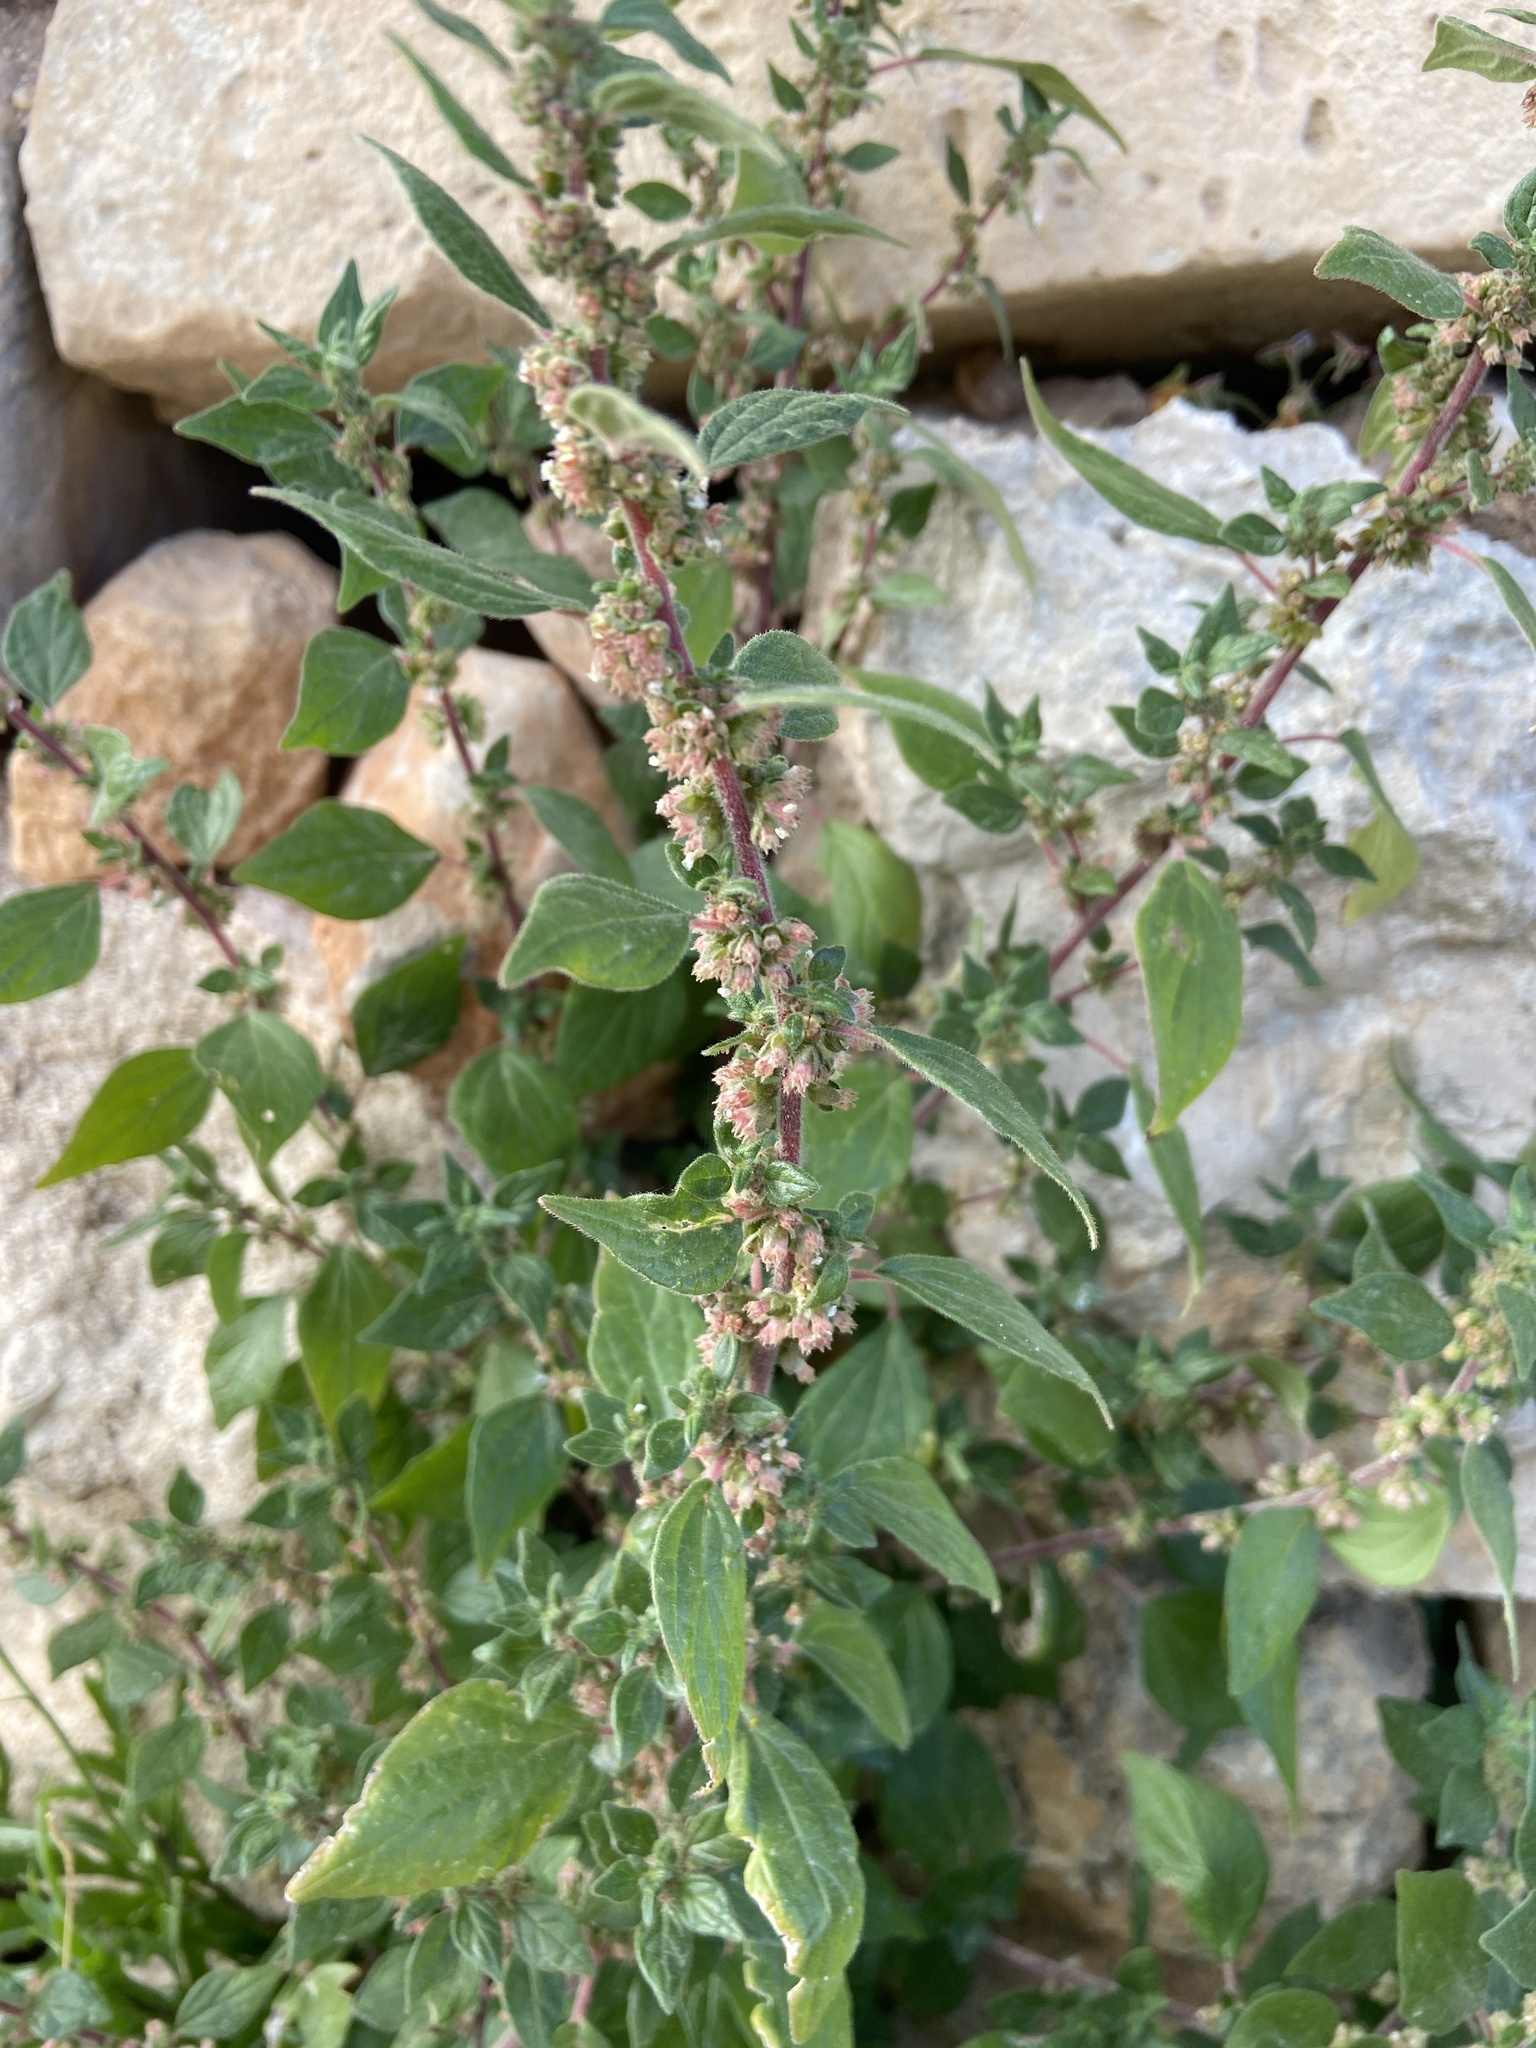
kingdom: Plantae
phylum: Tracheophyta
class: Magnoliopsida
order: Rosales
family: Urticaceae
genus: Parietaria
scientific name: Parietaria judaica
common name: Pellitory-of-the-wall
